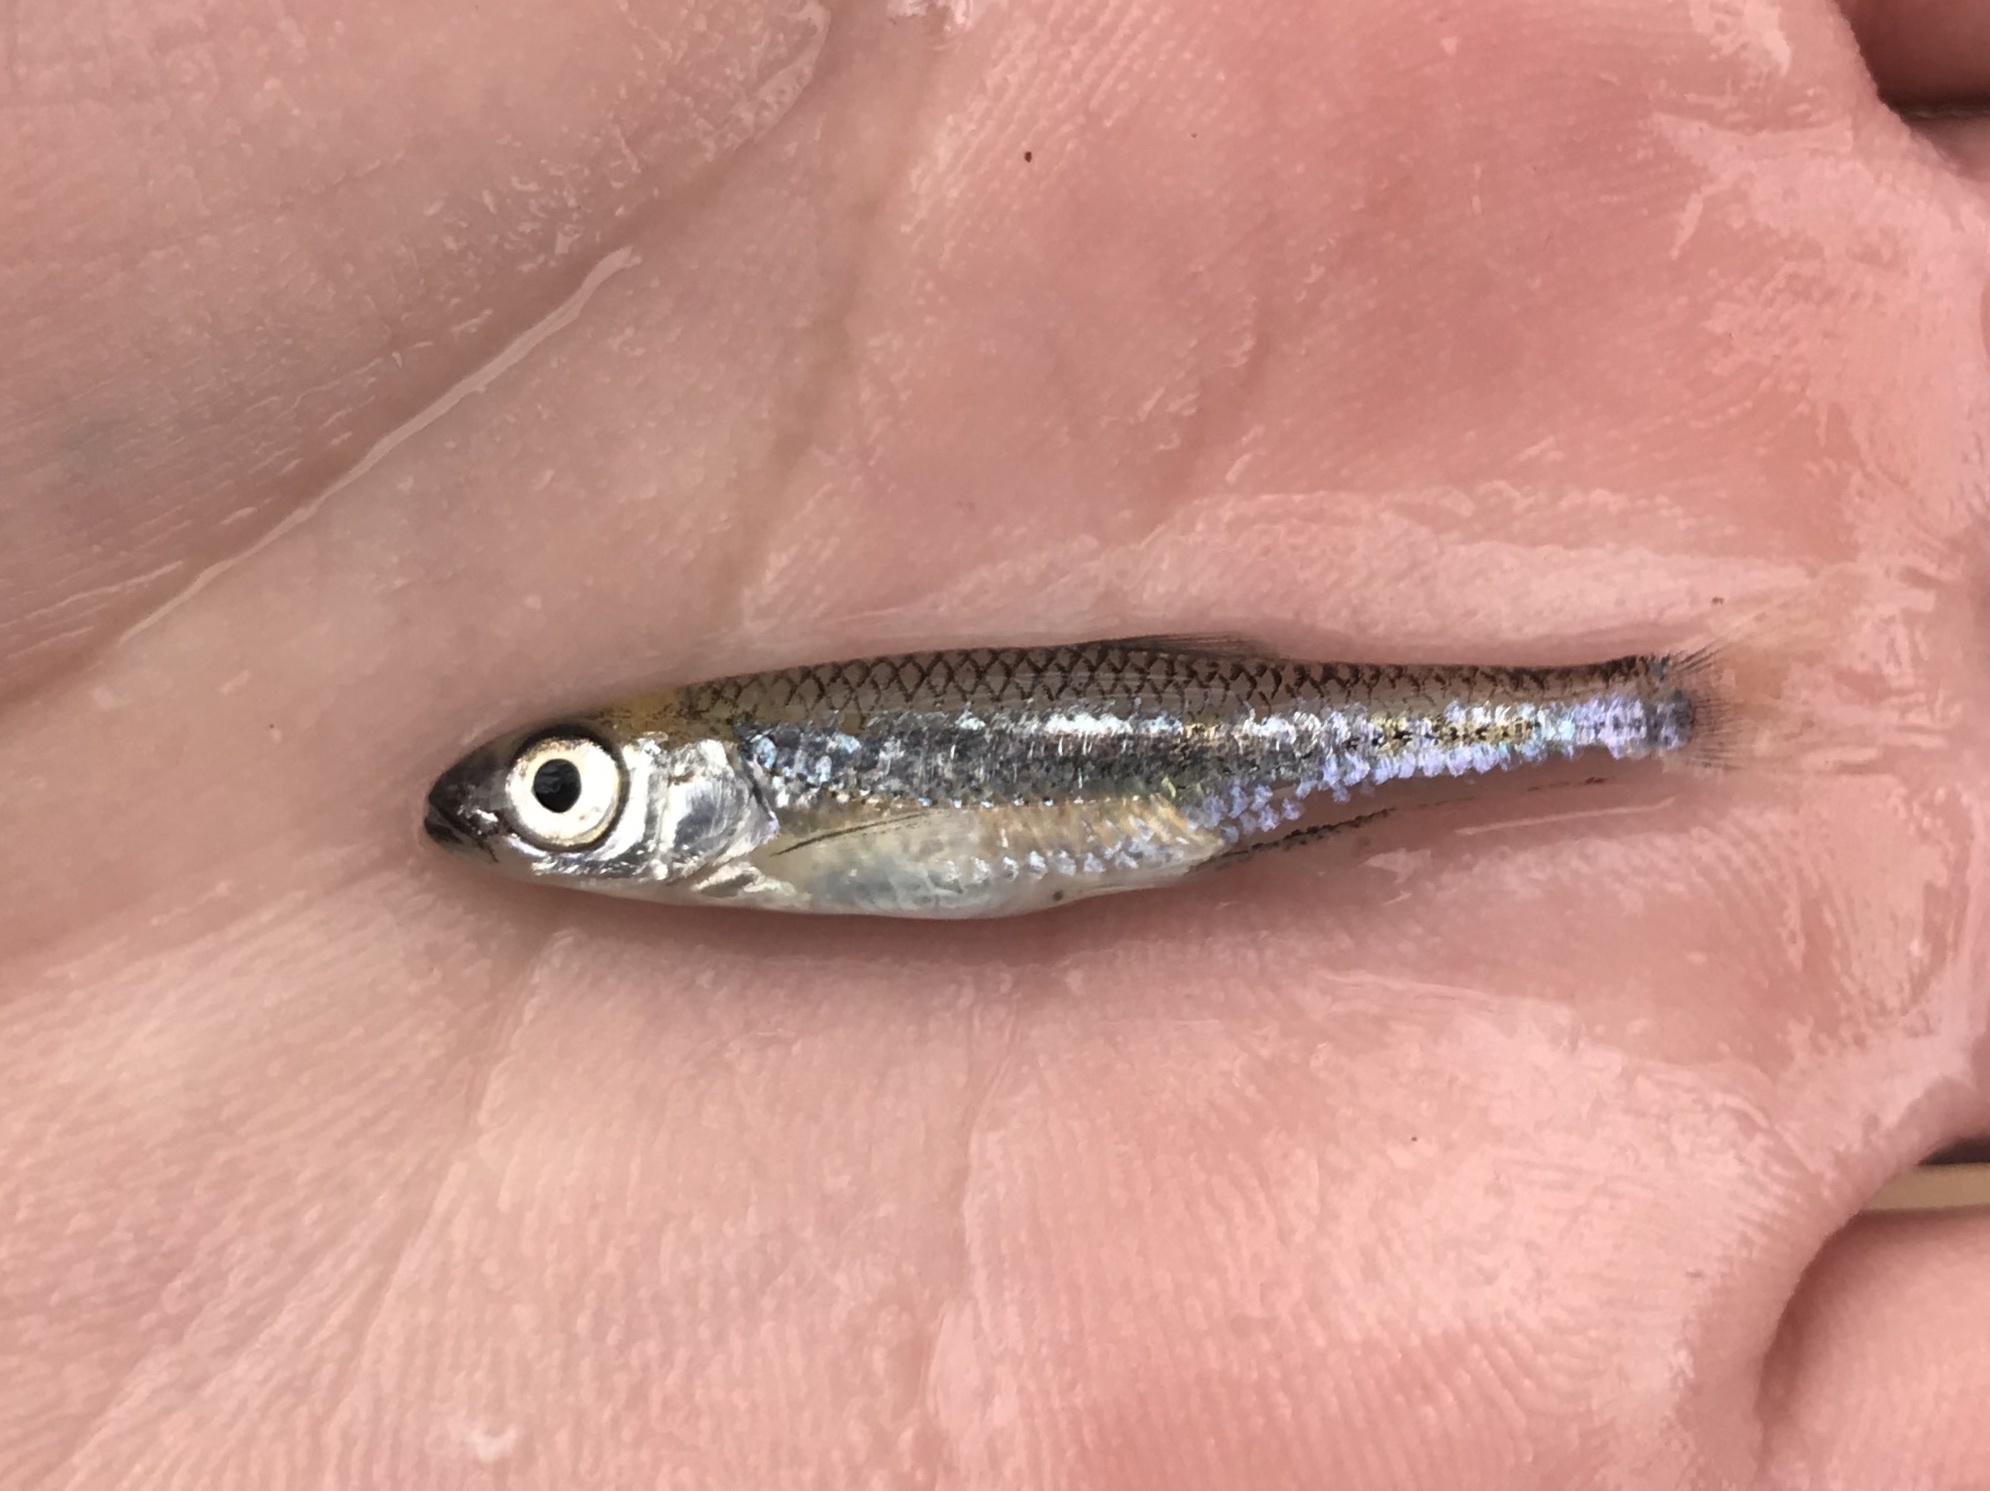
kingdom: Animalia
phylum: Chordata
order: Cypriniformes
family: Cyprinidae
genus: Notropis
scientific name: Notropis amabilis
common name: Texas shiner
